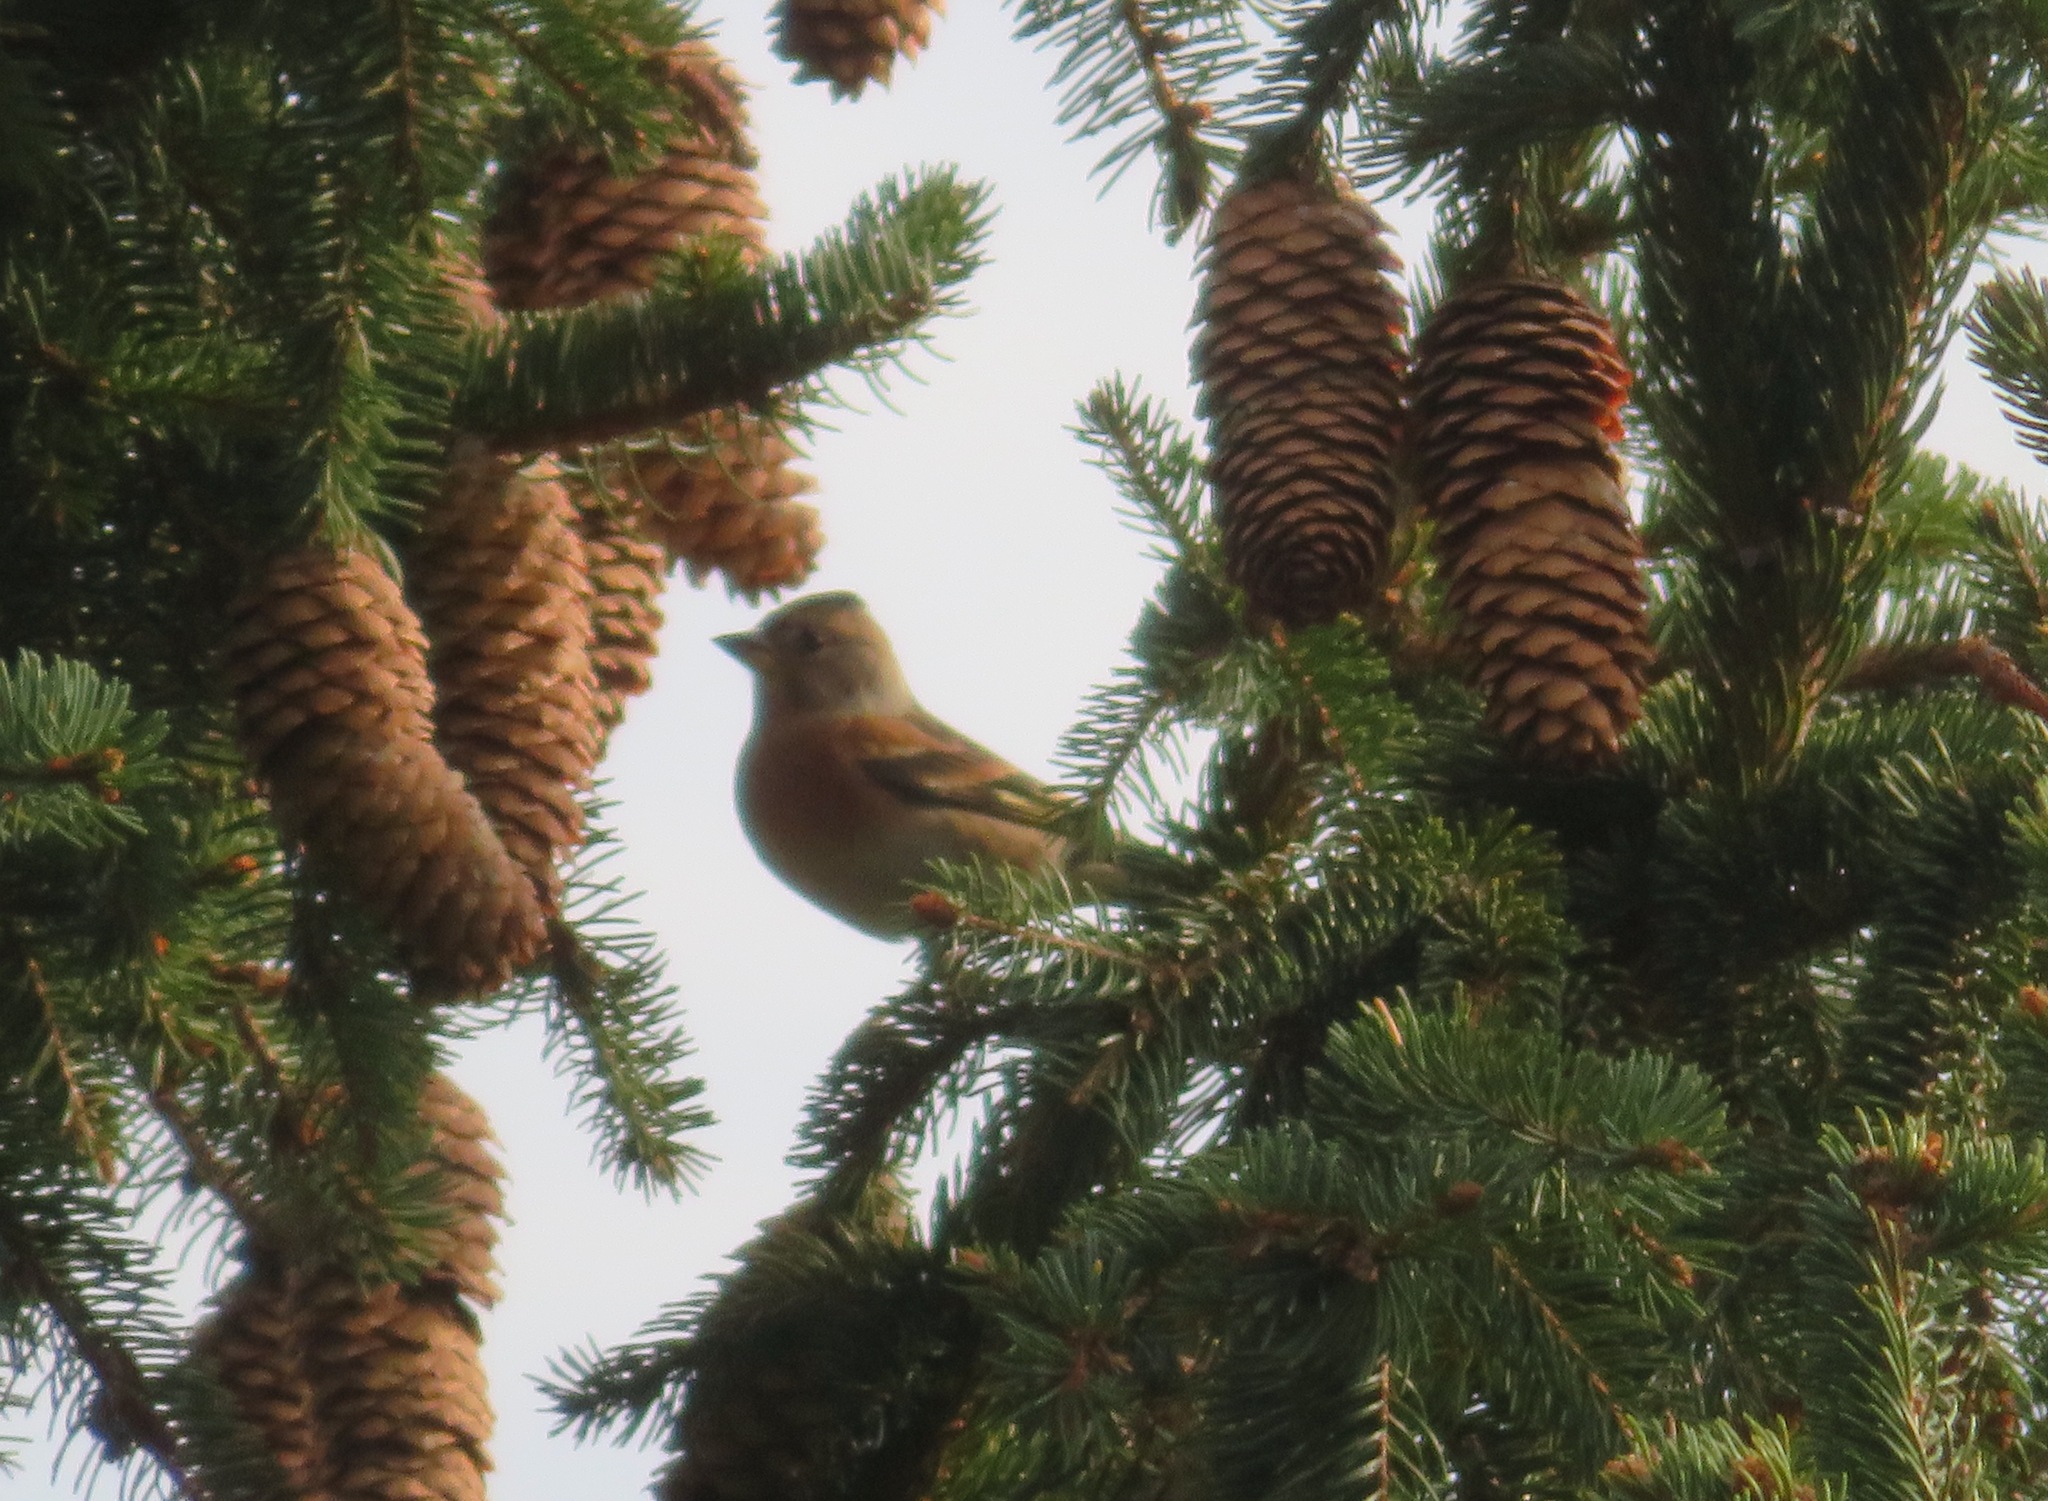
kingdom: Animalia
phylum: Chordata
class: Aves
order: Passeriformes
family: Fringillidae
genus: Fringilla
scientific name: Fringilla montifringilla
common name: Brambling
